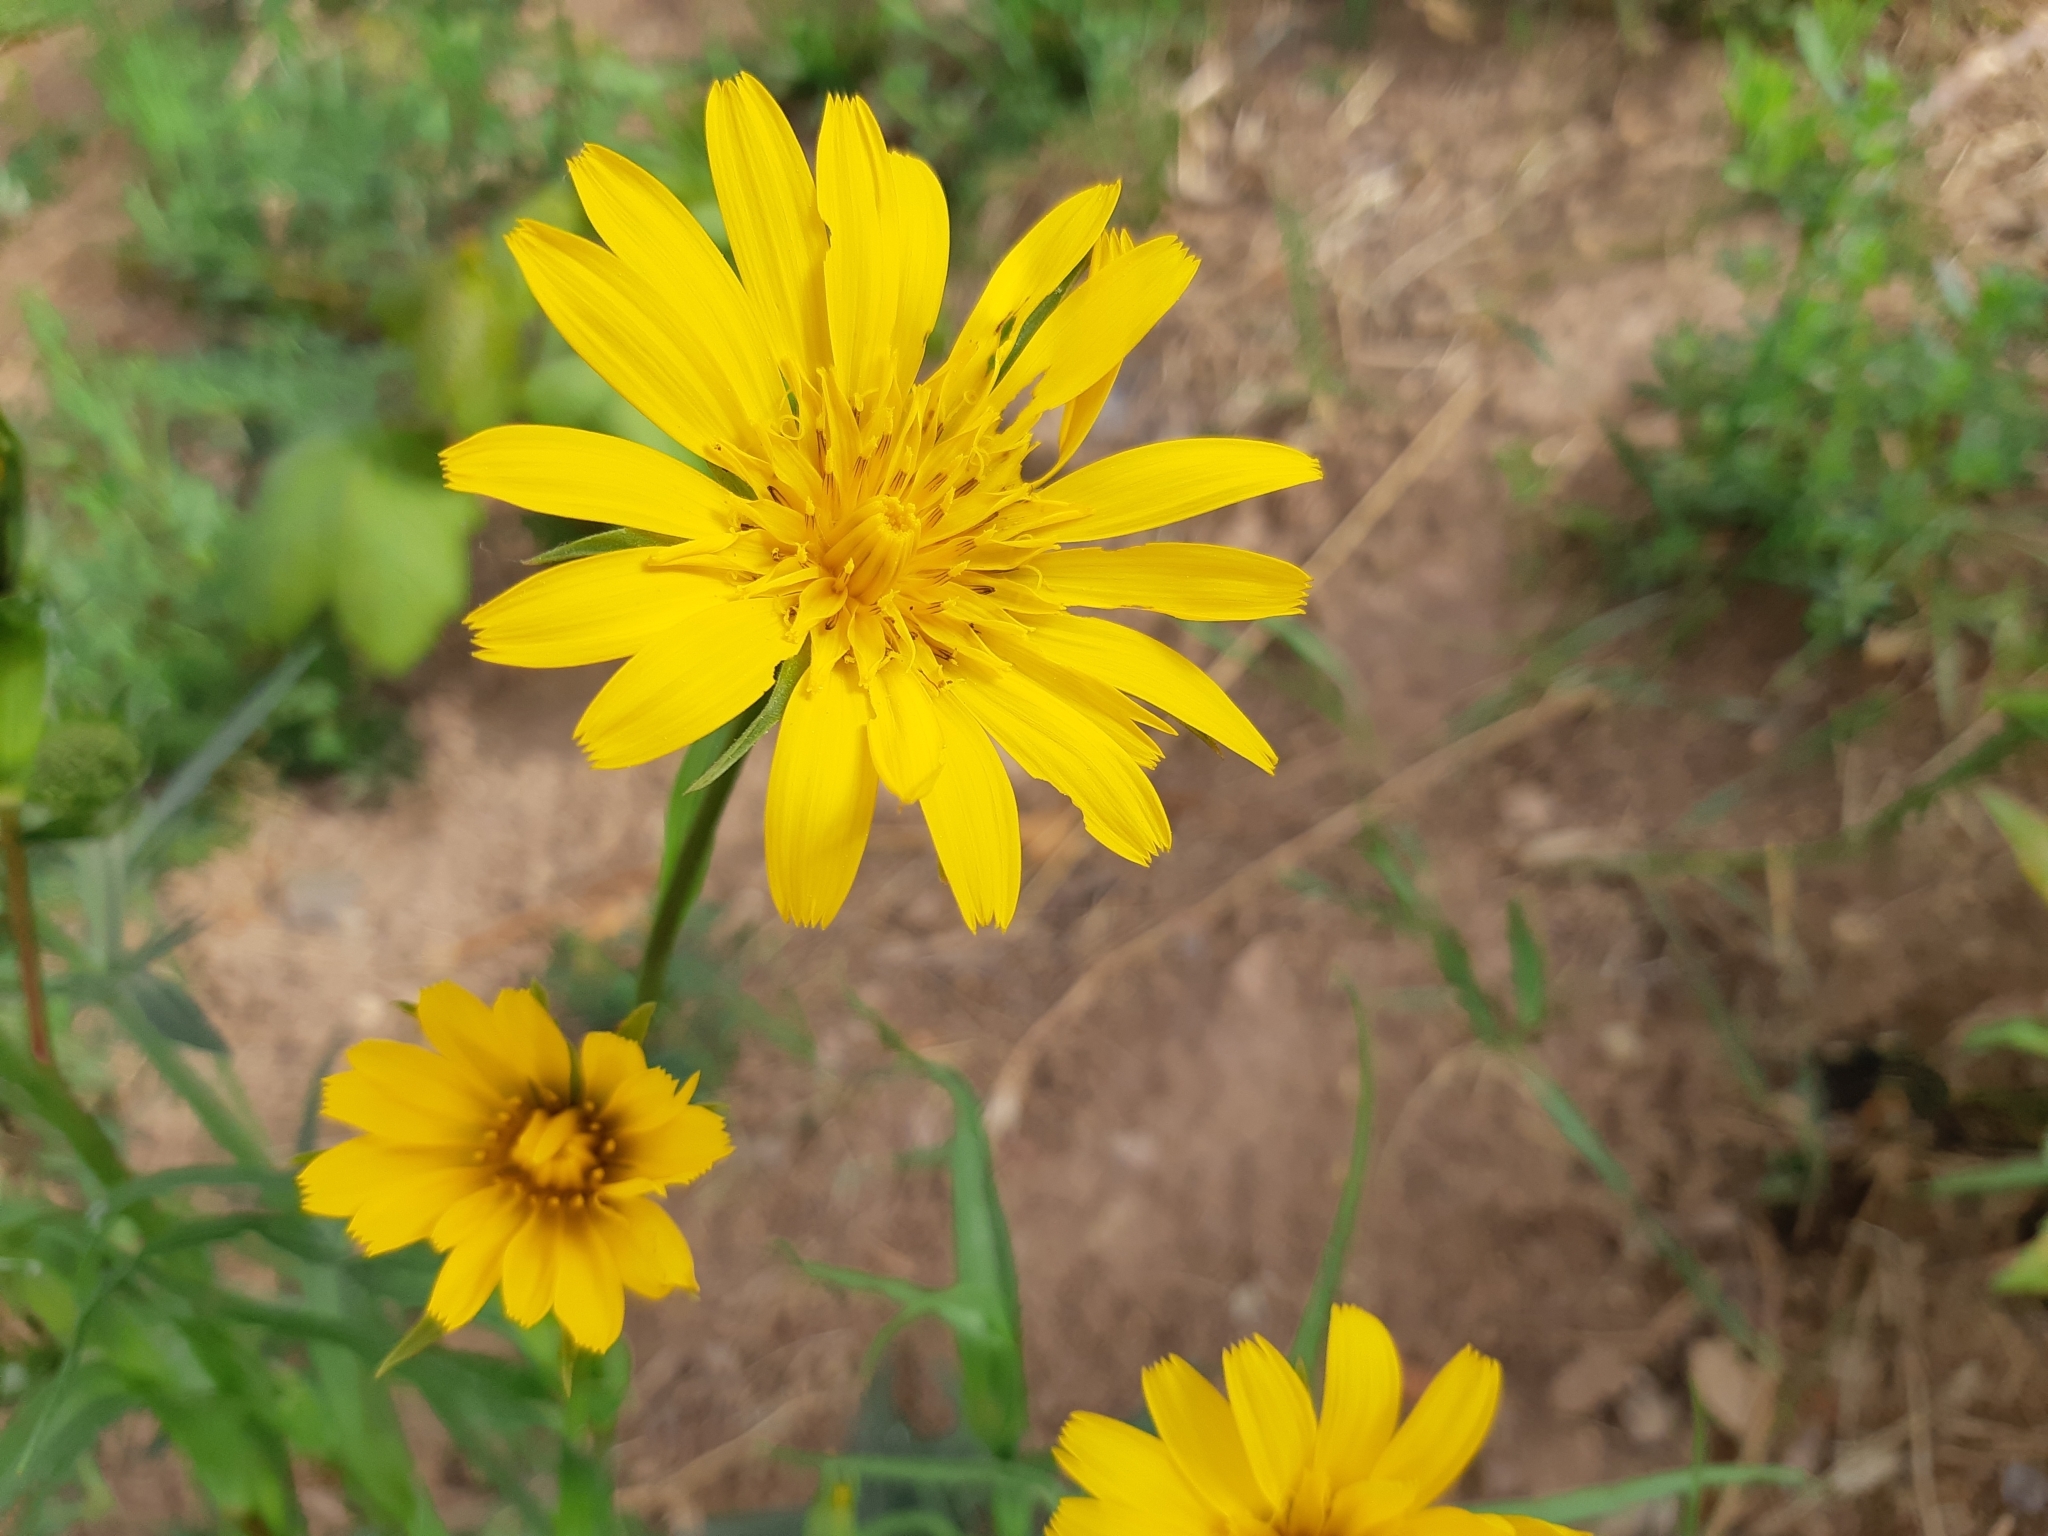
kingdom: Plantae
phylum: Tracheophyta
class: Magnoliopsida
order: Asterales
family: Asteraceae
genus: Tragopogon
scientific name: Tragopogon orientalis
